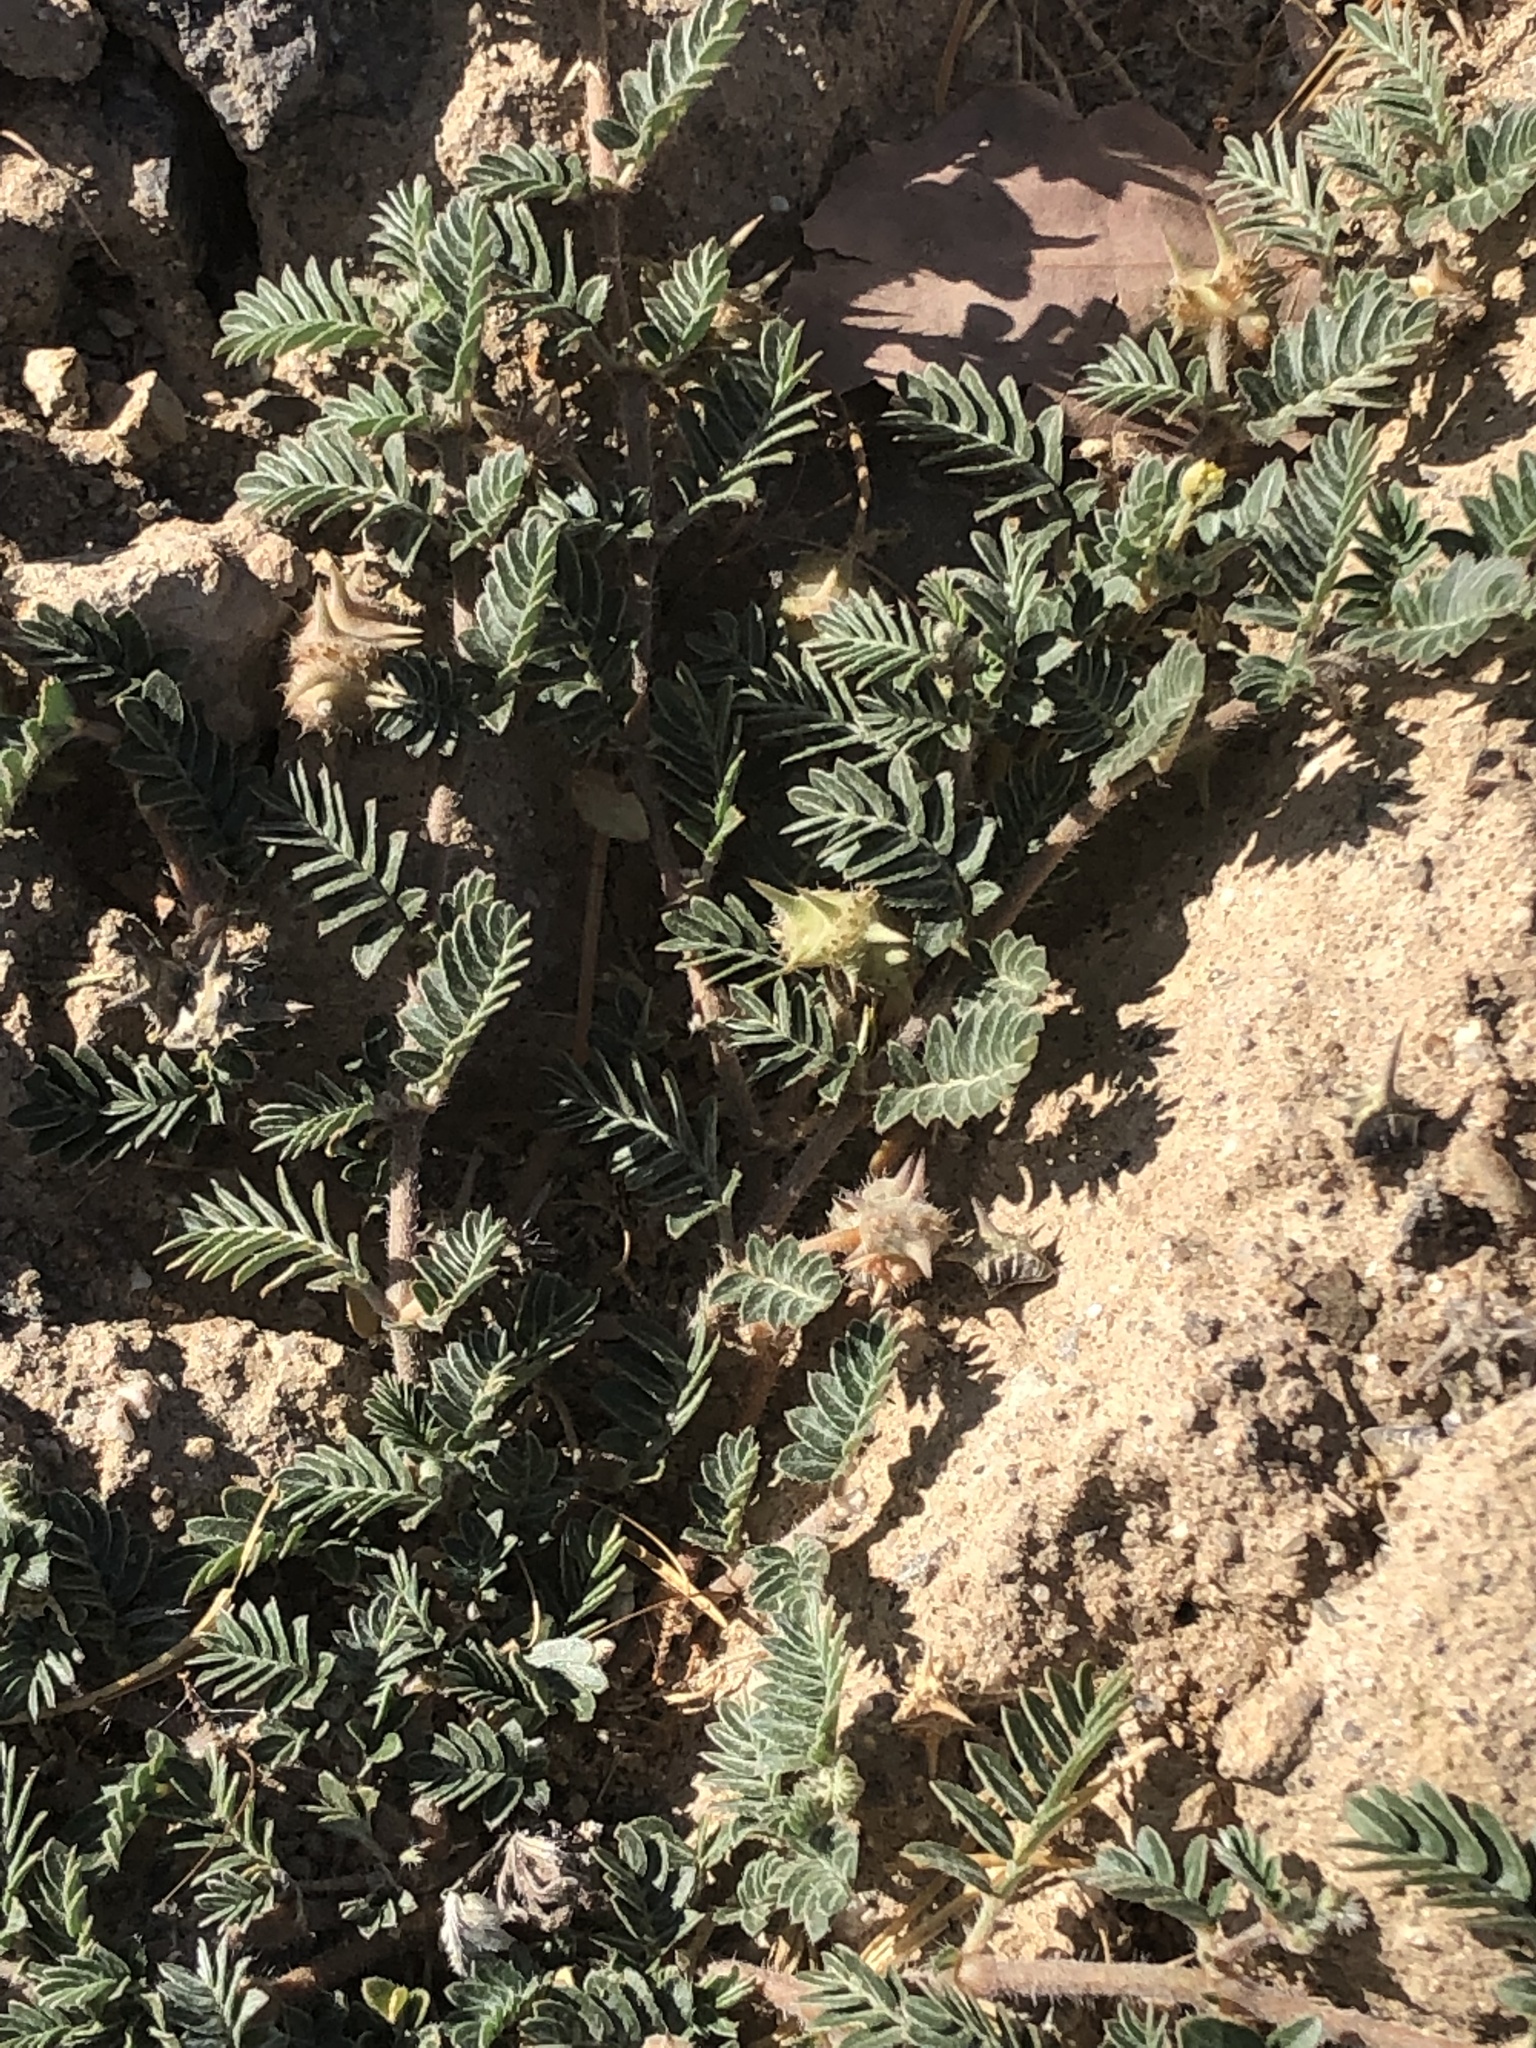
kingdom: Plantae
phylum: Tracheophyta
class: Magnoliopsida
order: Zygophyllales
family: Zygophyllaceae
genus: Tribulus
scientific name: Tribulus terrestris
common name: Puncturevine
